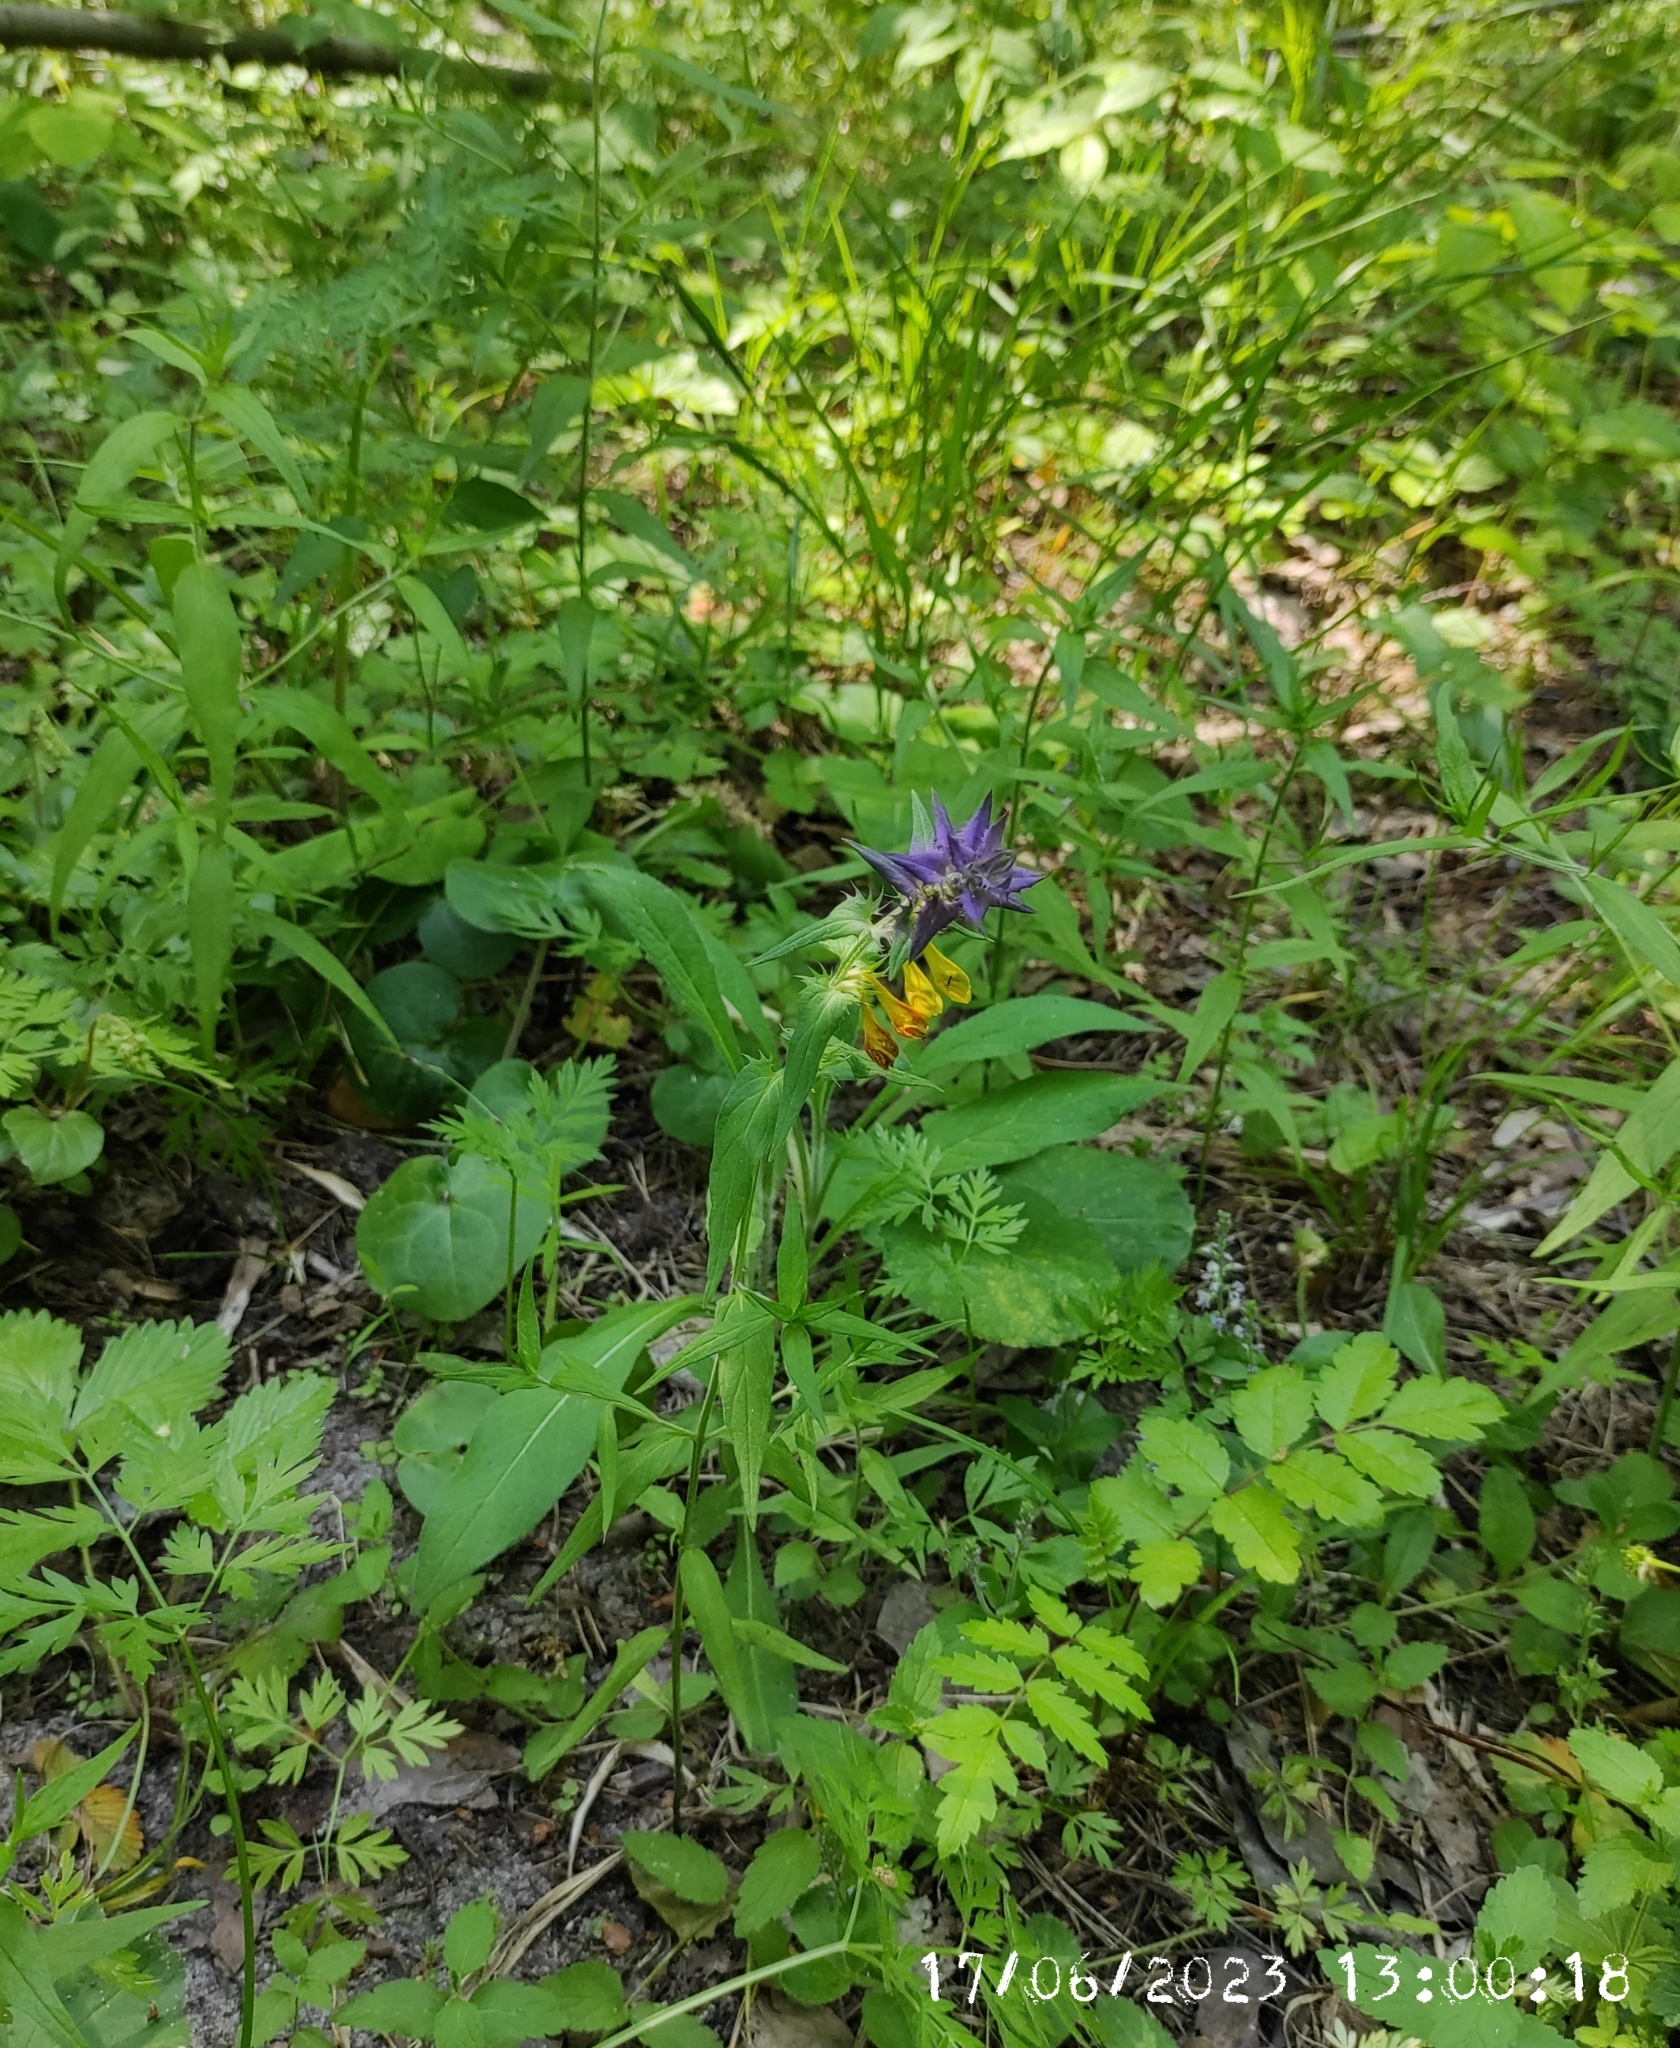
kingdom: Plantae
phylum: Tracheophyta
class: Magnoliopsida
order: Lamiales
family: Orobanchaceae
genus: Melampyrum
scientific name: Melampyrum nemorosum
